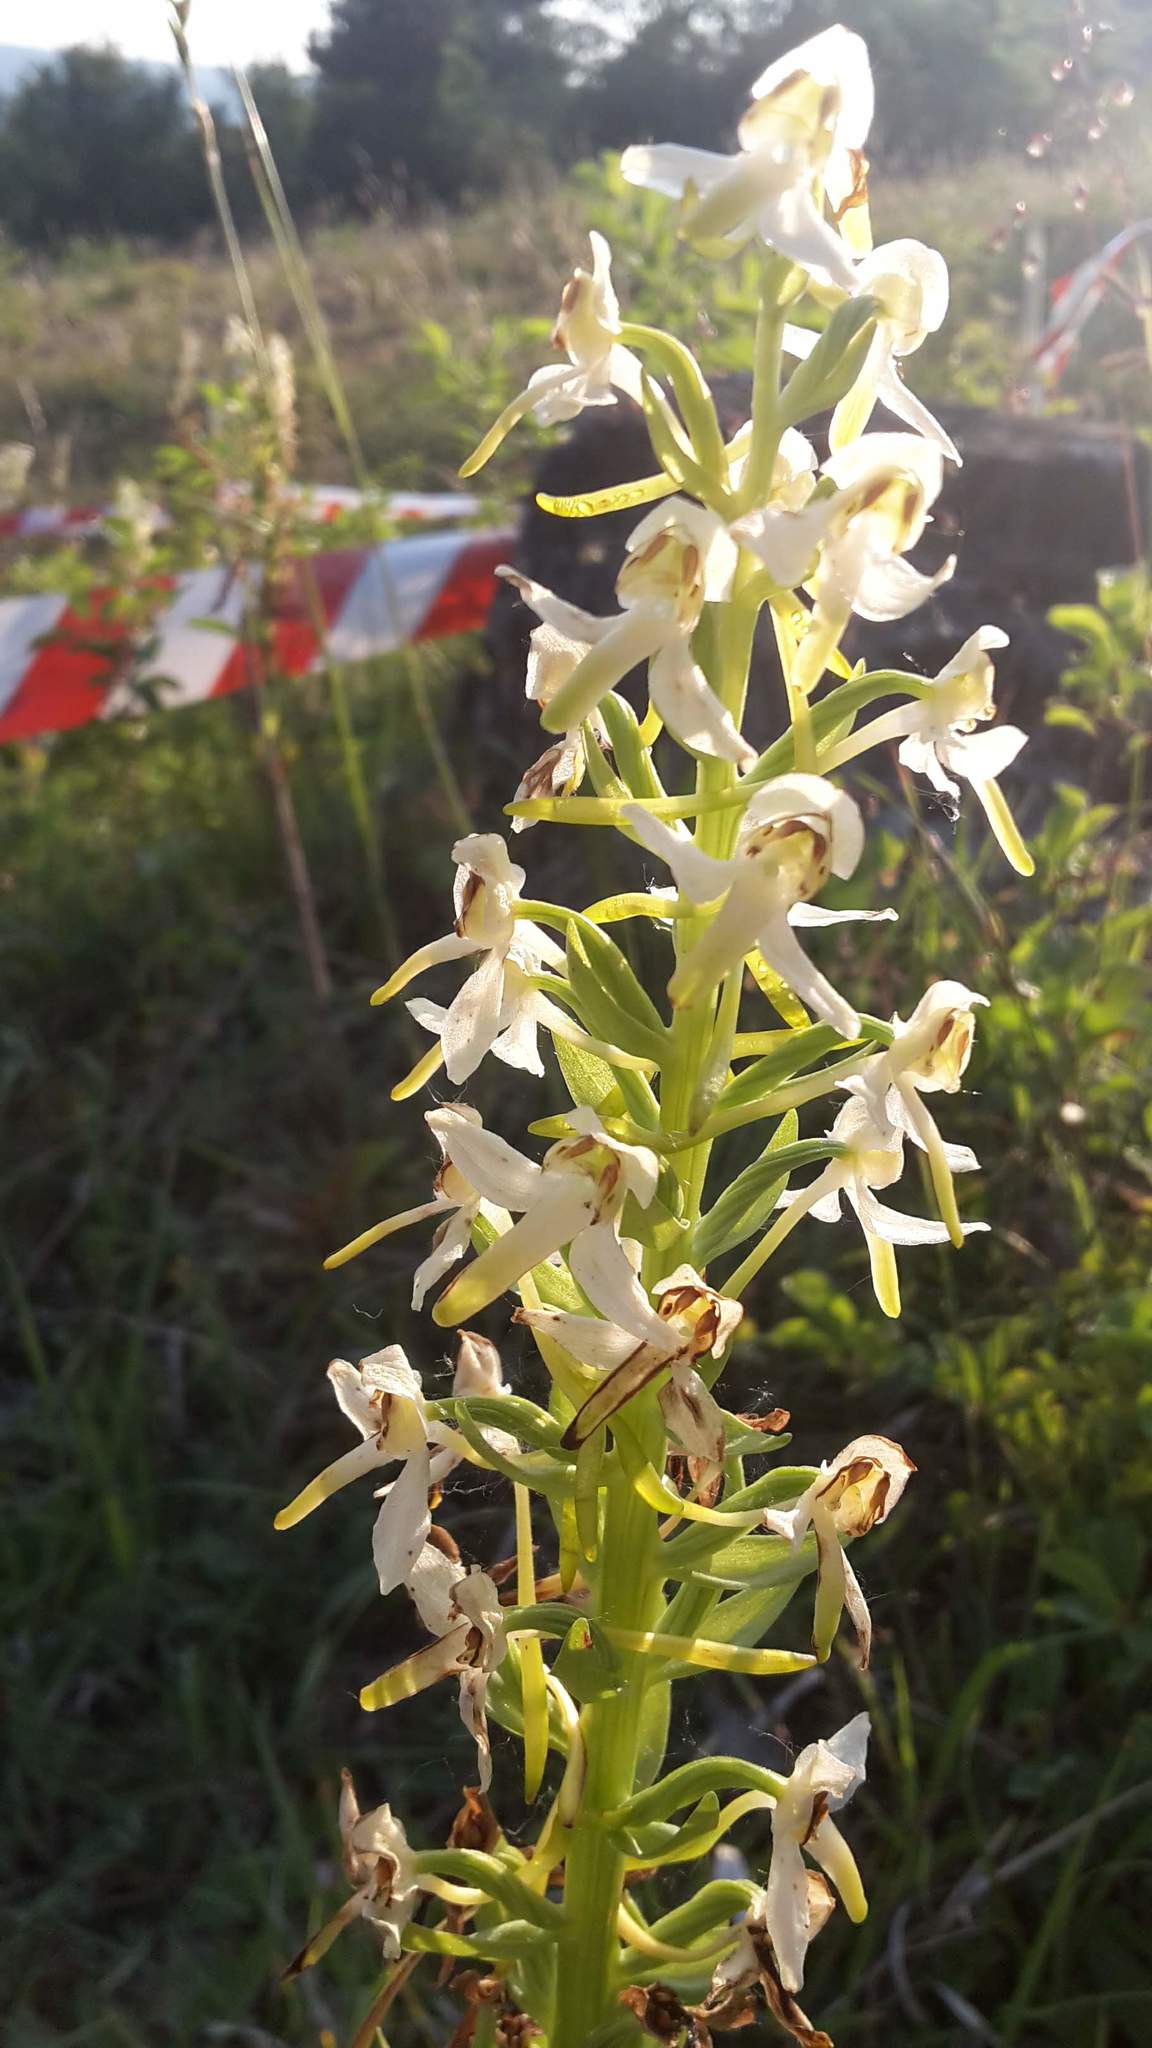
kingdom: Plantae
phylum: Tracheophyta
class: Liliopsida
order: Asparagales
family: Orchidaceae
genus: Platanthera
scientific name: Platanthera chlorantha
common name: Greater butterfly-orchid
